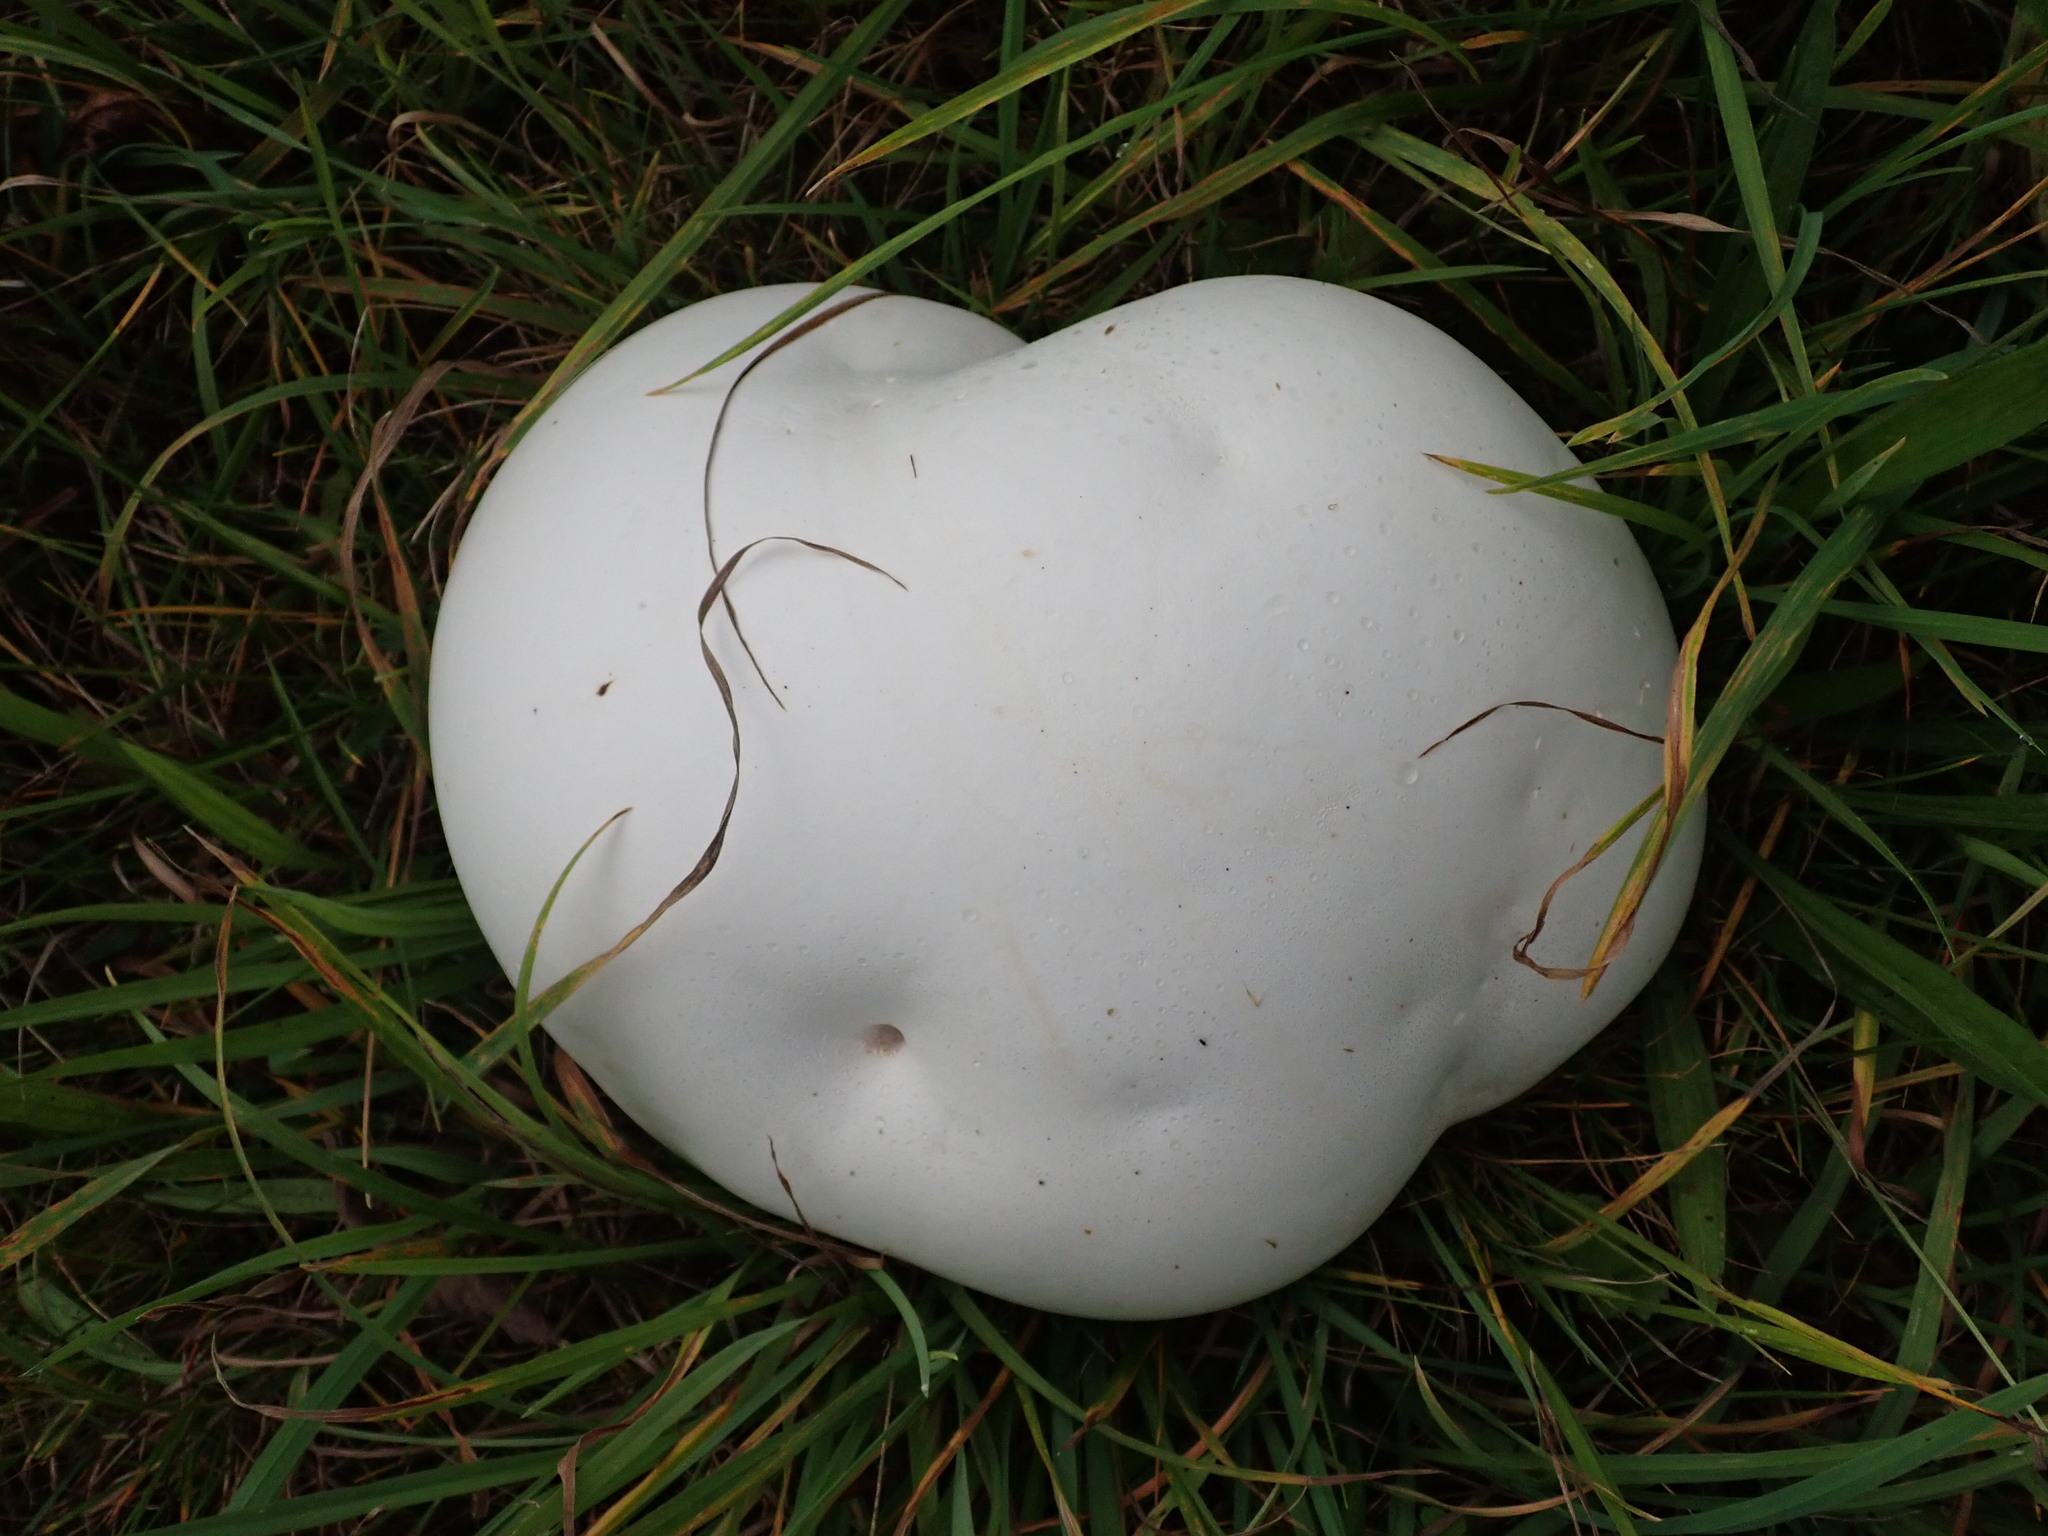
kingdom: Fungi
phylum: Basidiomycota
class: Agaricomycetes
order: Agaricales
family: Lycoperdaceae
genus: Calvatia
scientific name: Calvatia gigantea
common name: Giant puffball
